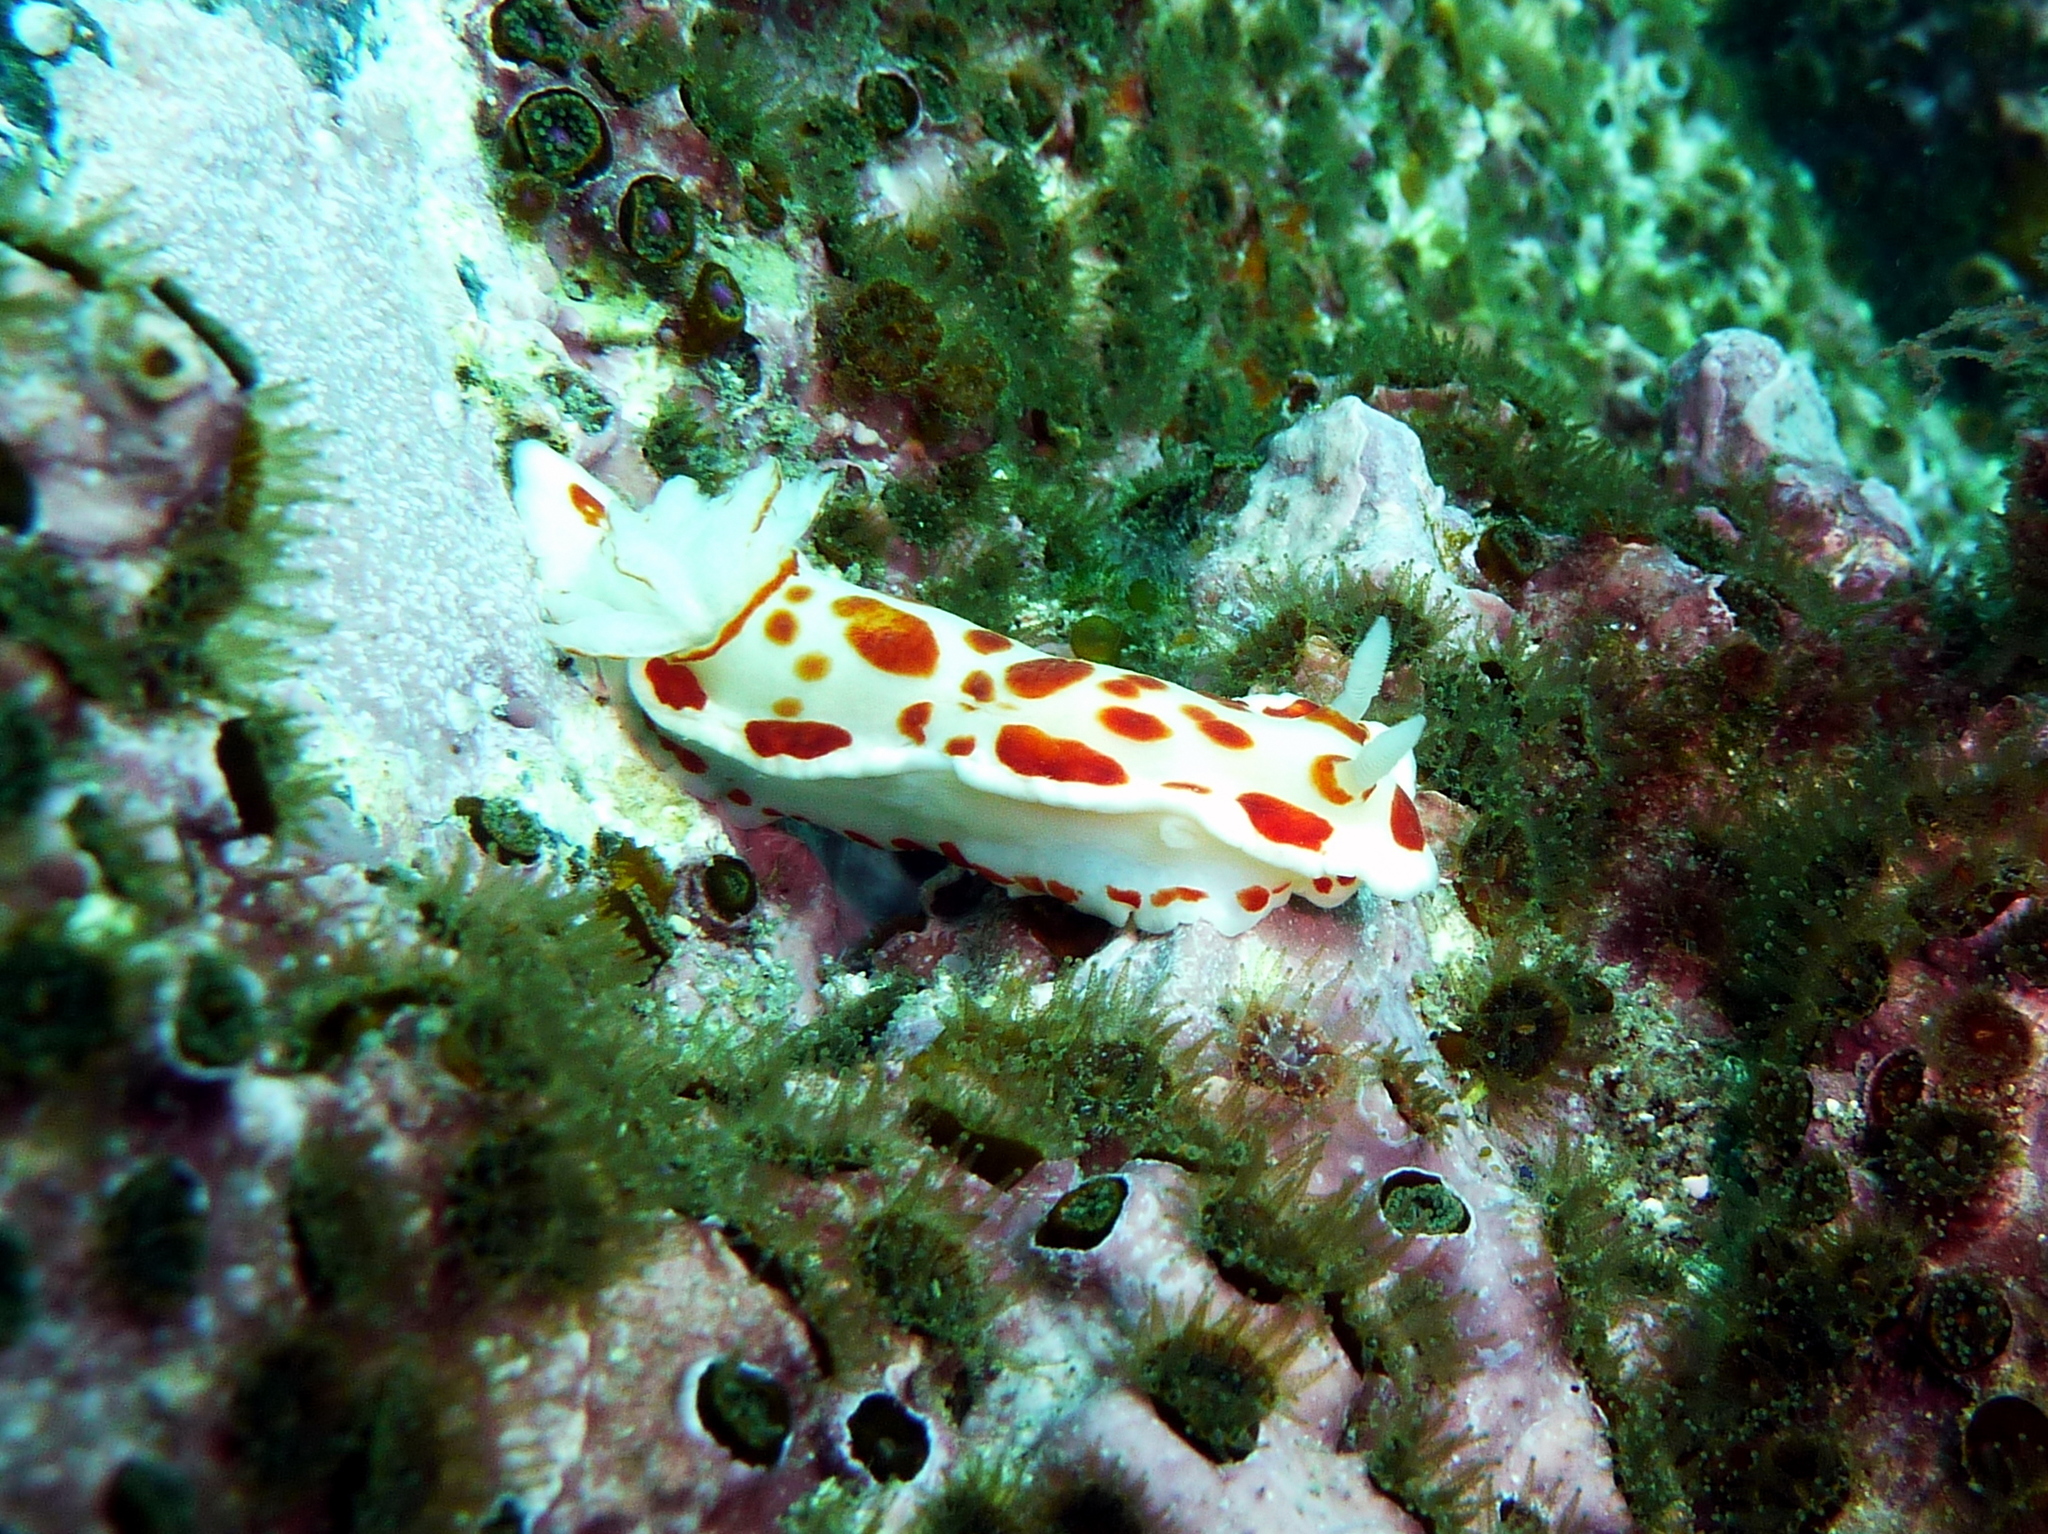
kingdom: Animalia
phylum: Mollusca
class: Gastropoda
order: Nudibranchia
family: Chromodorididae
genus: Goniobranchus
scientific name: Goniobranchus tasmaniensis
